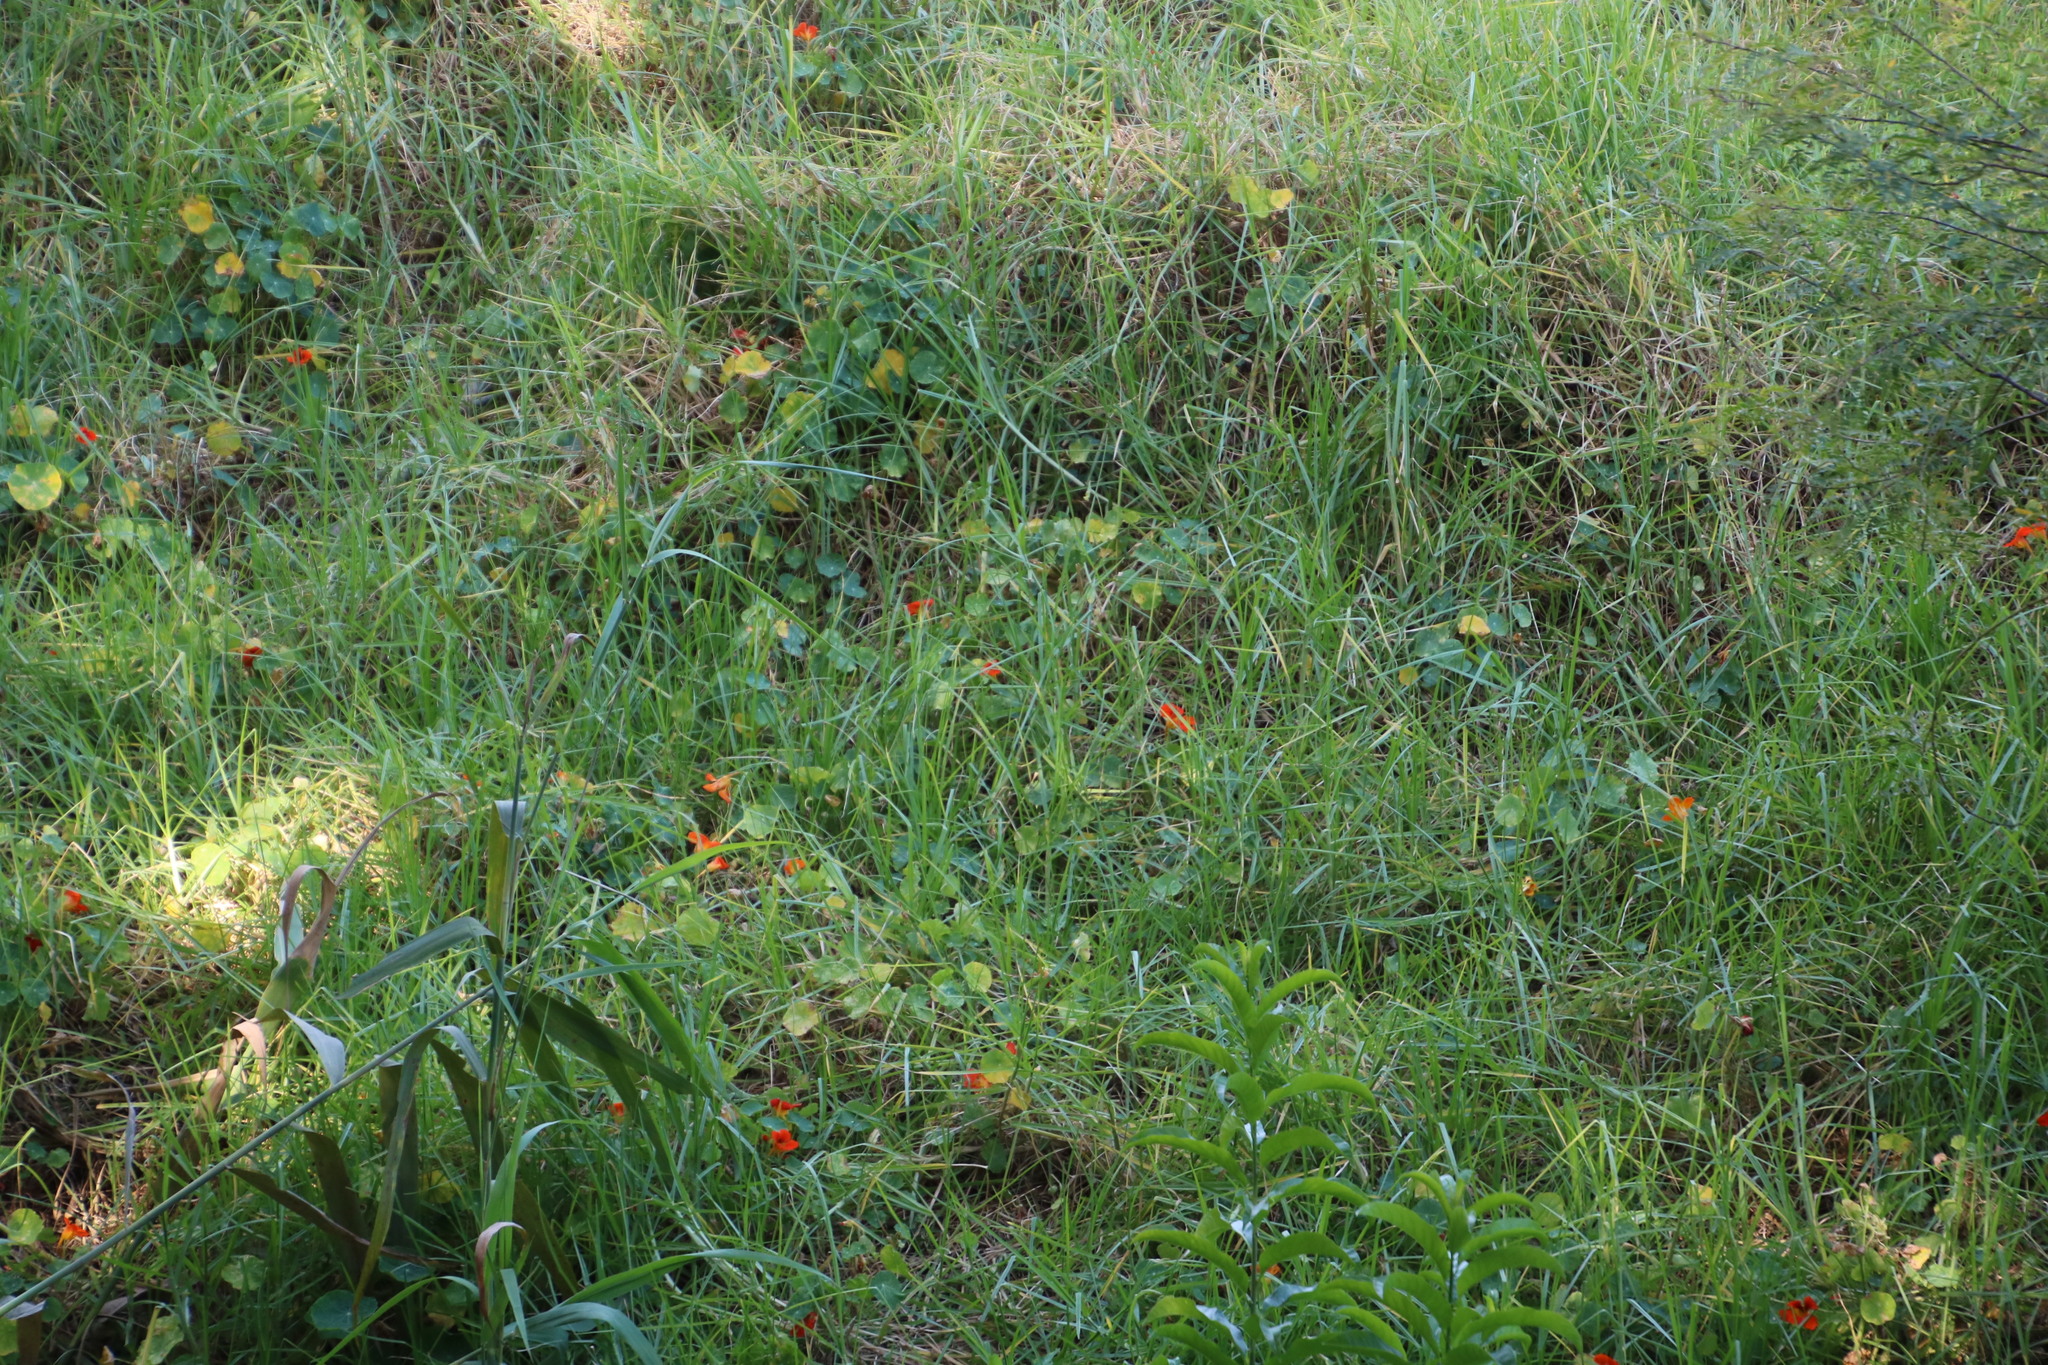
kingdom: Plantae
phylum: Tracheophyta
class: Magnoliopsida
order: Brassicales
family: Tropaeolaceae
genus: Tropaeolum
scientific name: Tropaeolum majus
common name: Nasturtium
